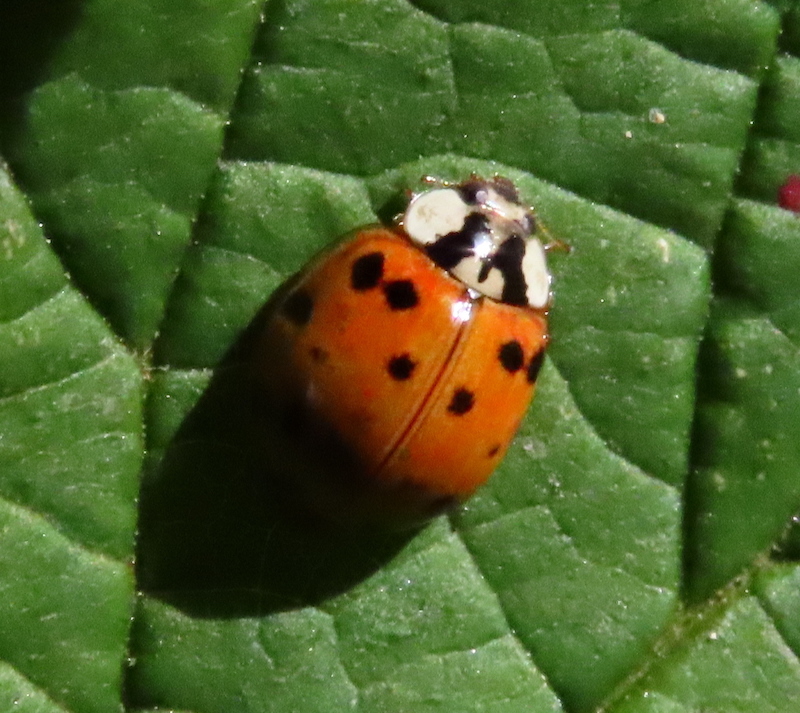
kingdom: Animalia
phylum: Arthropoda
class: Insecta
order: Coleoptera
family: Coccinellidae
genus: Harmonia
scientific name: Harmonia axyridis
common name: Harlequin ladybird
